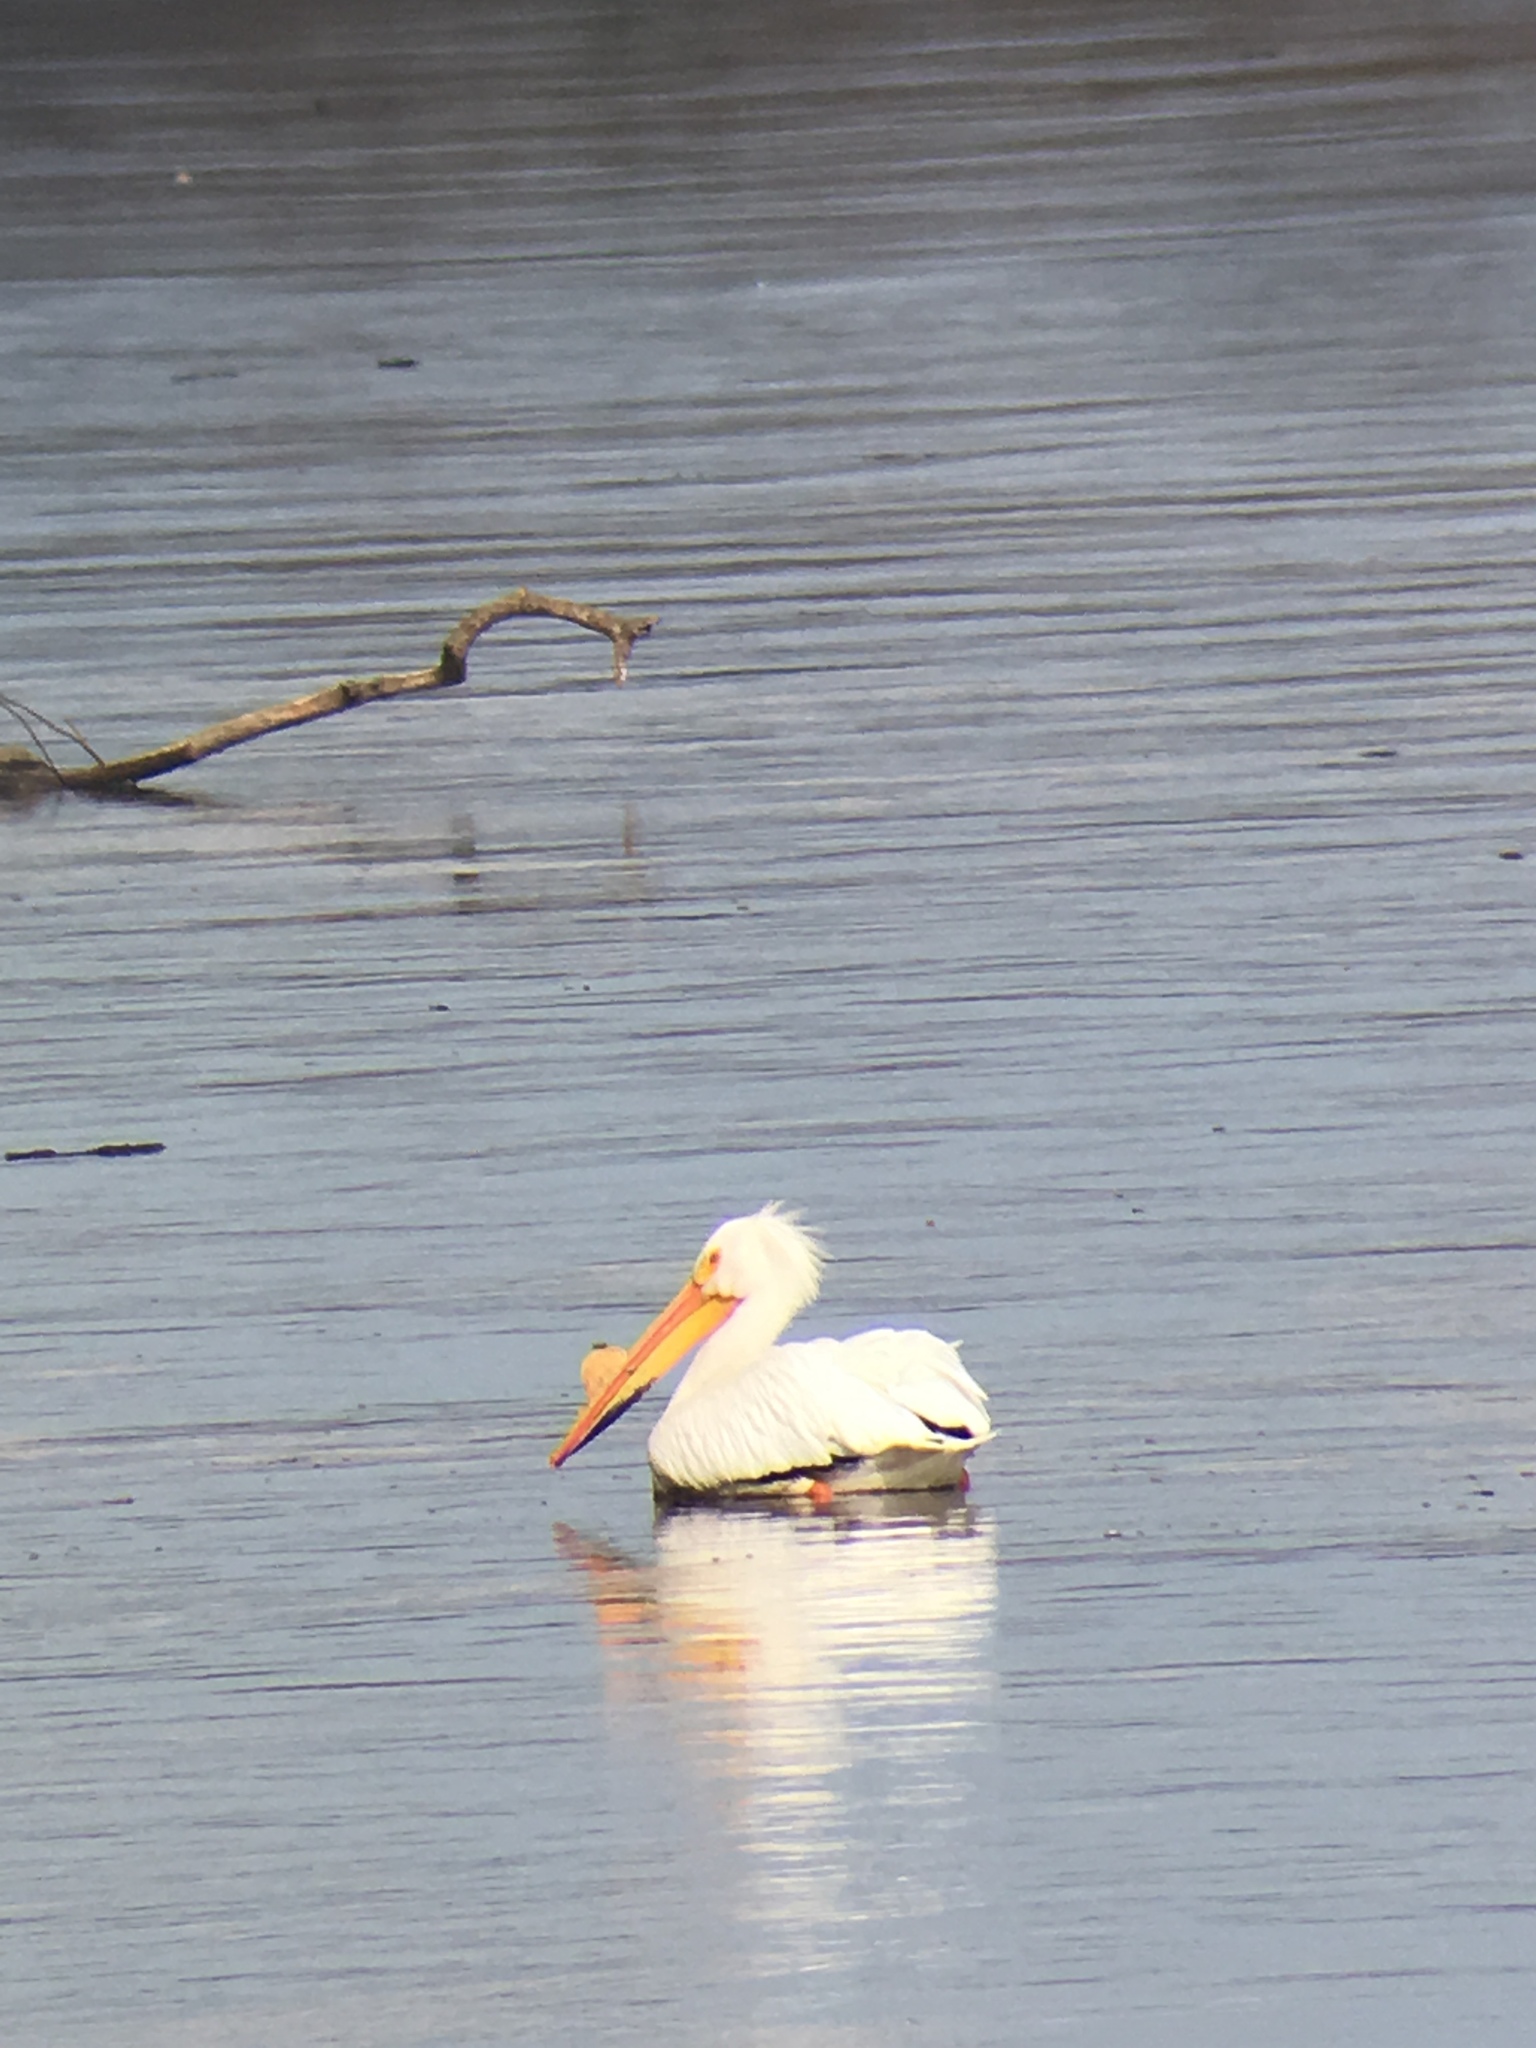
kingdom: Animalia
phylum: Chordata
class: Aves
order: Pelecaniformes
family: Pelecanidae
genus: Pelecanus
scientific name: Pelecanus erythrorhynchos
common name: American white pelican
